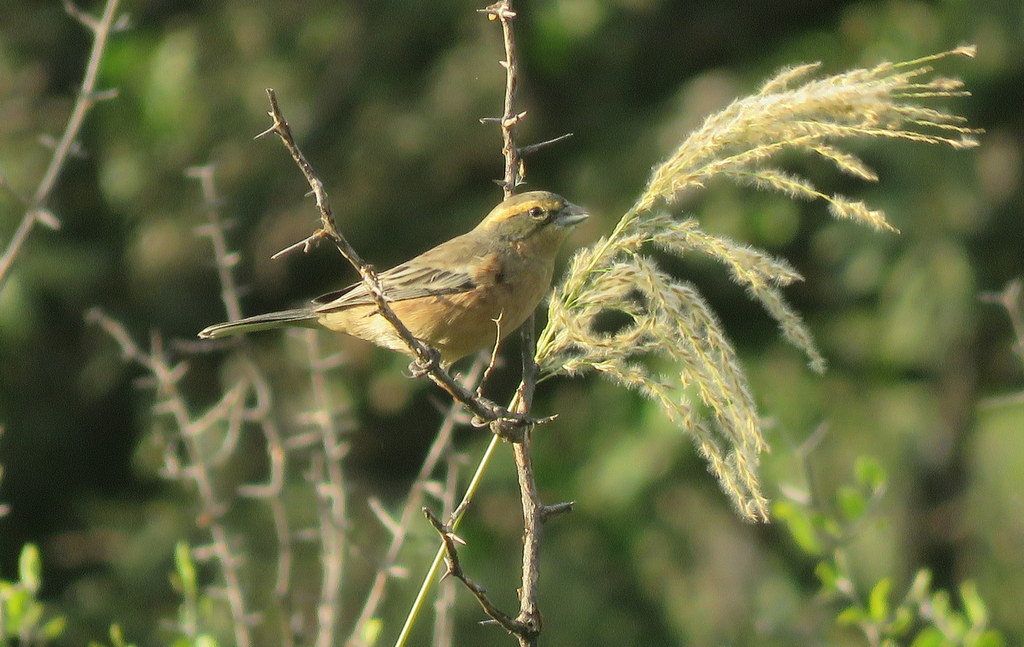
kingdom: Animalia
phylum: Chordata
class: Aves
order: Passeriformes
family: Thraupidae
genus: Poospiza
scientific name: Poospiza ornata
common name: Cinnamon warbling finch
